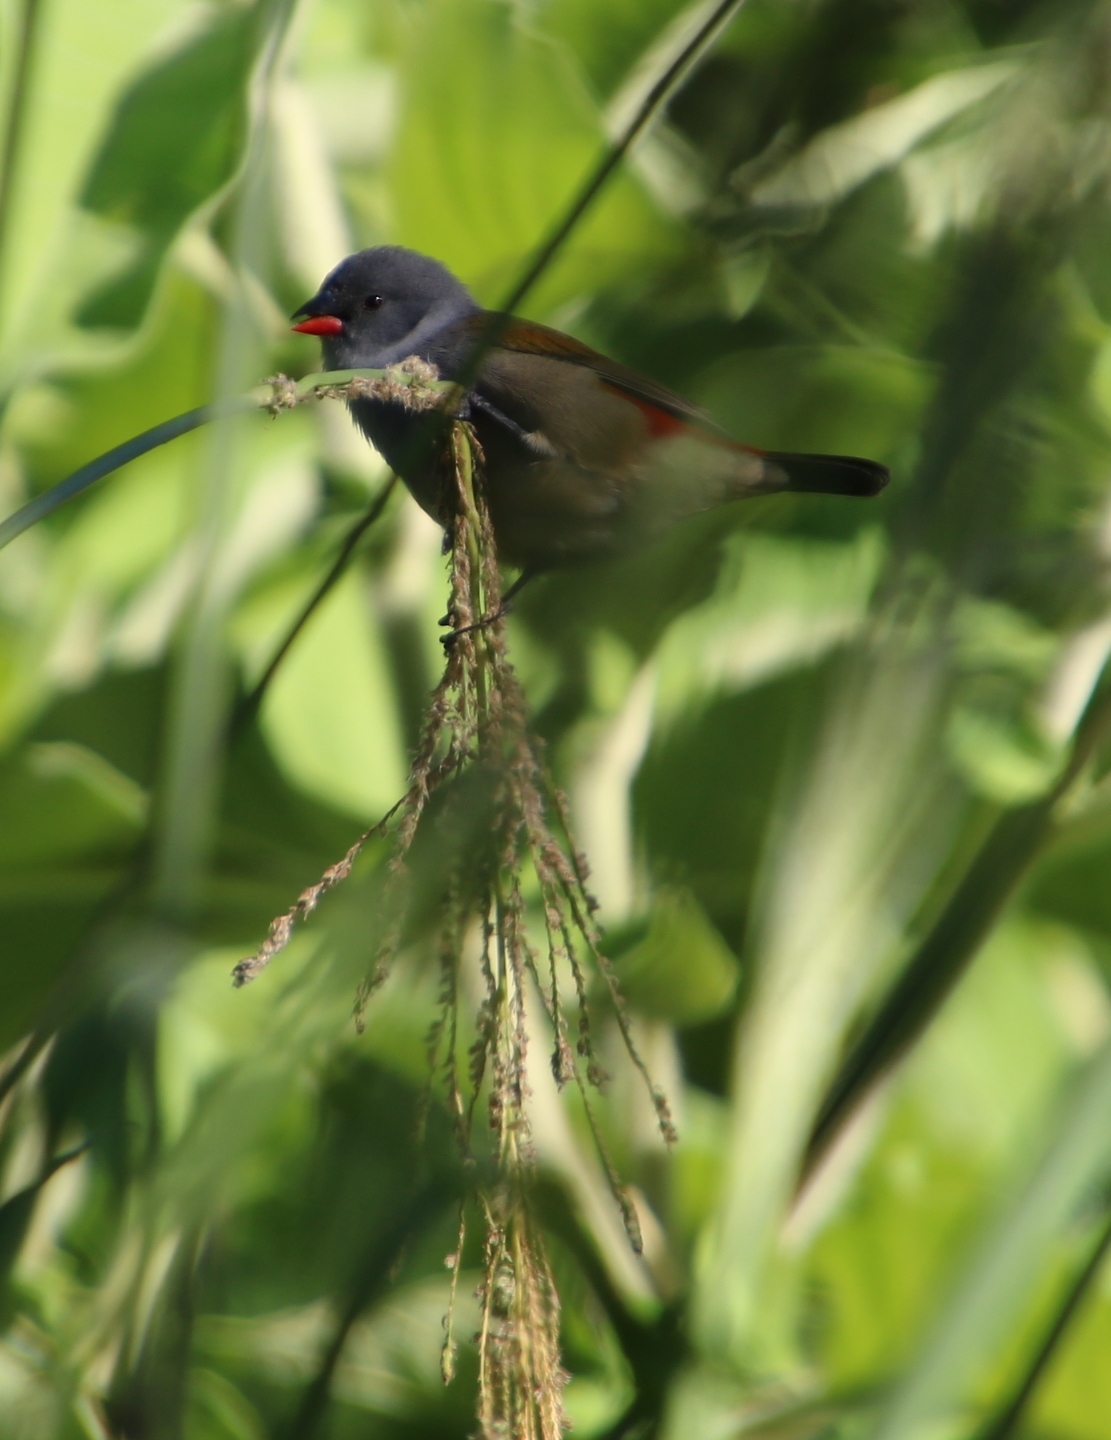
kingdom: Animalia
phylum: Chordata
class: Aves
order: Passeriformes
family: Estrildidae
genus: Coccopygia
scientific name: Coccopygia melanotis
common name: Swee waxbill
